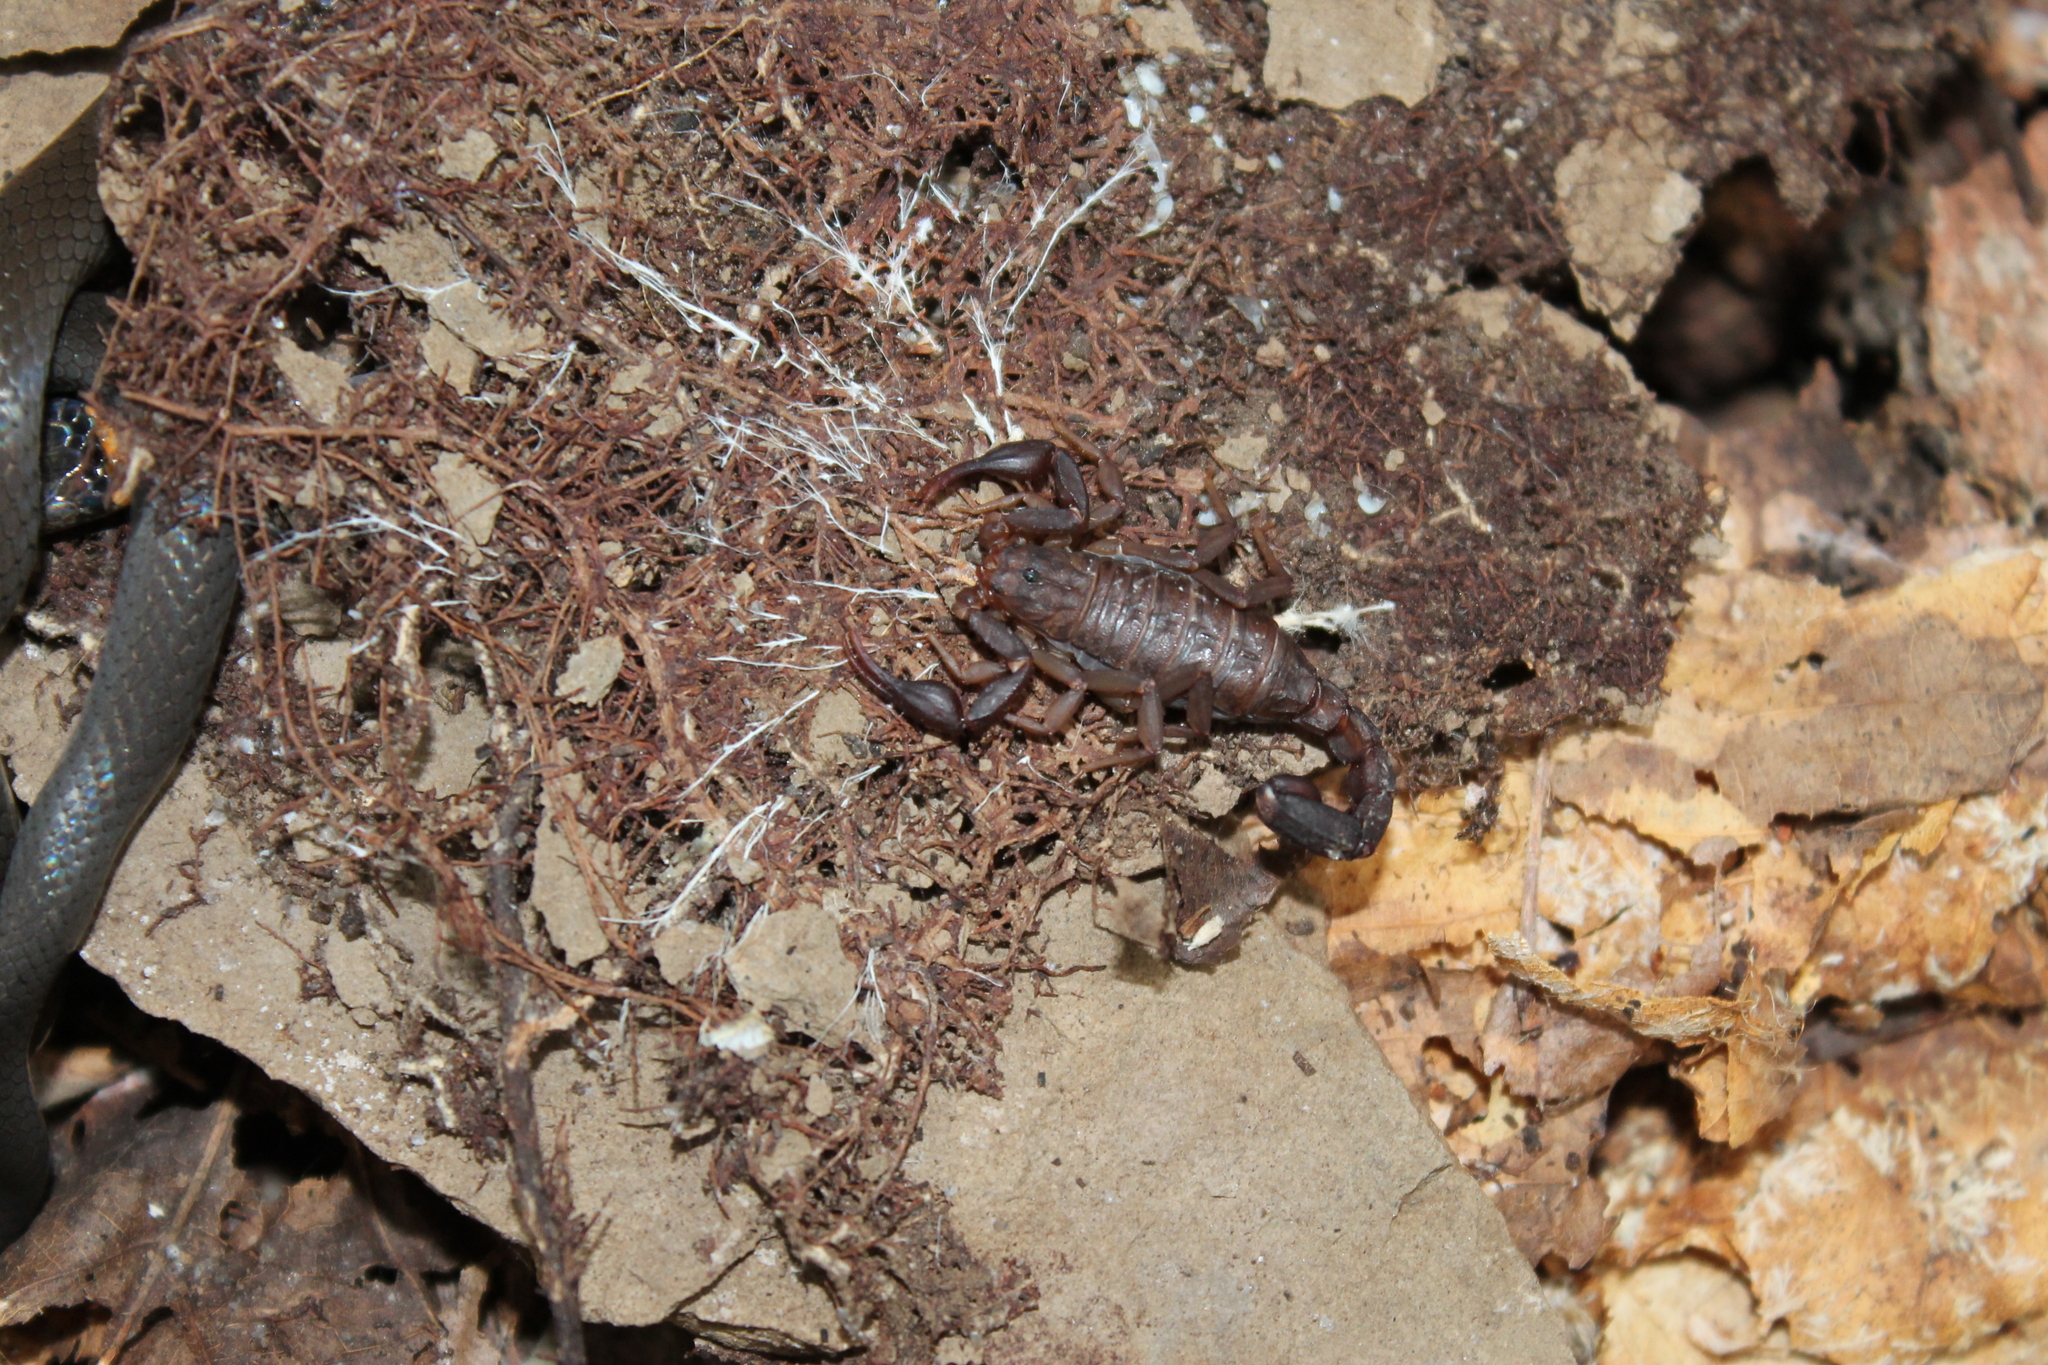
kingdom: Animalia
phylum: Arthropoda
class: Arachnida
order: Scorpiones
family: Vaejovidae
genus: Vaejovis
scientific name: Vaejovis carolinianus
